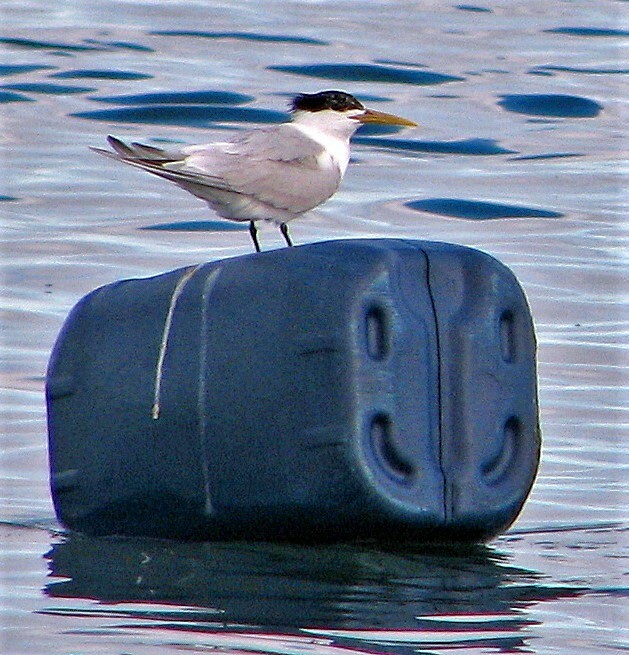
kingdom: Animalia
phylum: Chordata
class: Aves
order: Charadriiformes
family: Laridae
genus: Thalasseus
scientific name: Thalasseus sandvicensis
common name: Sandwich tern
